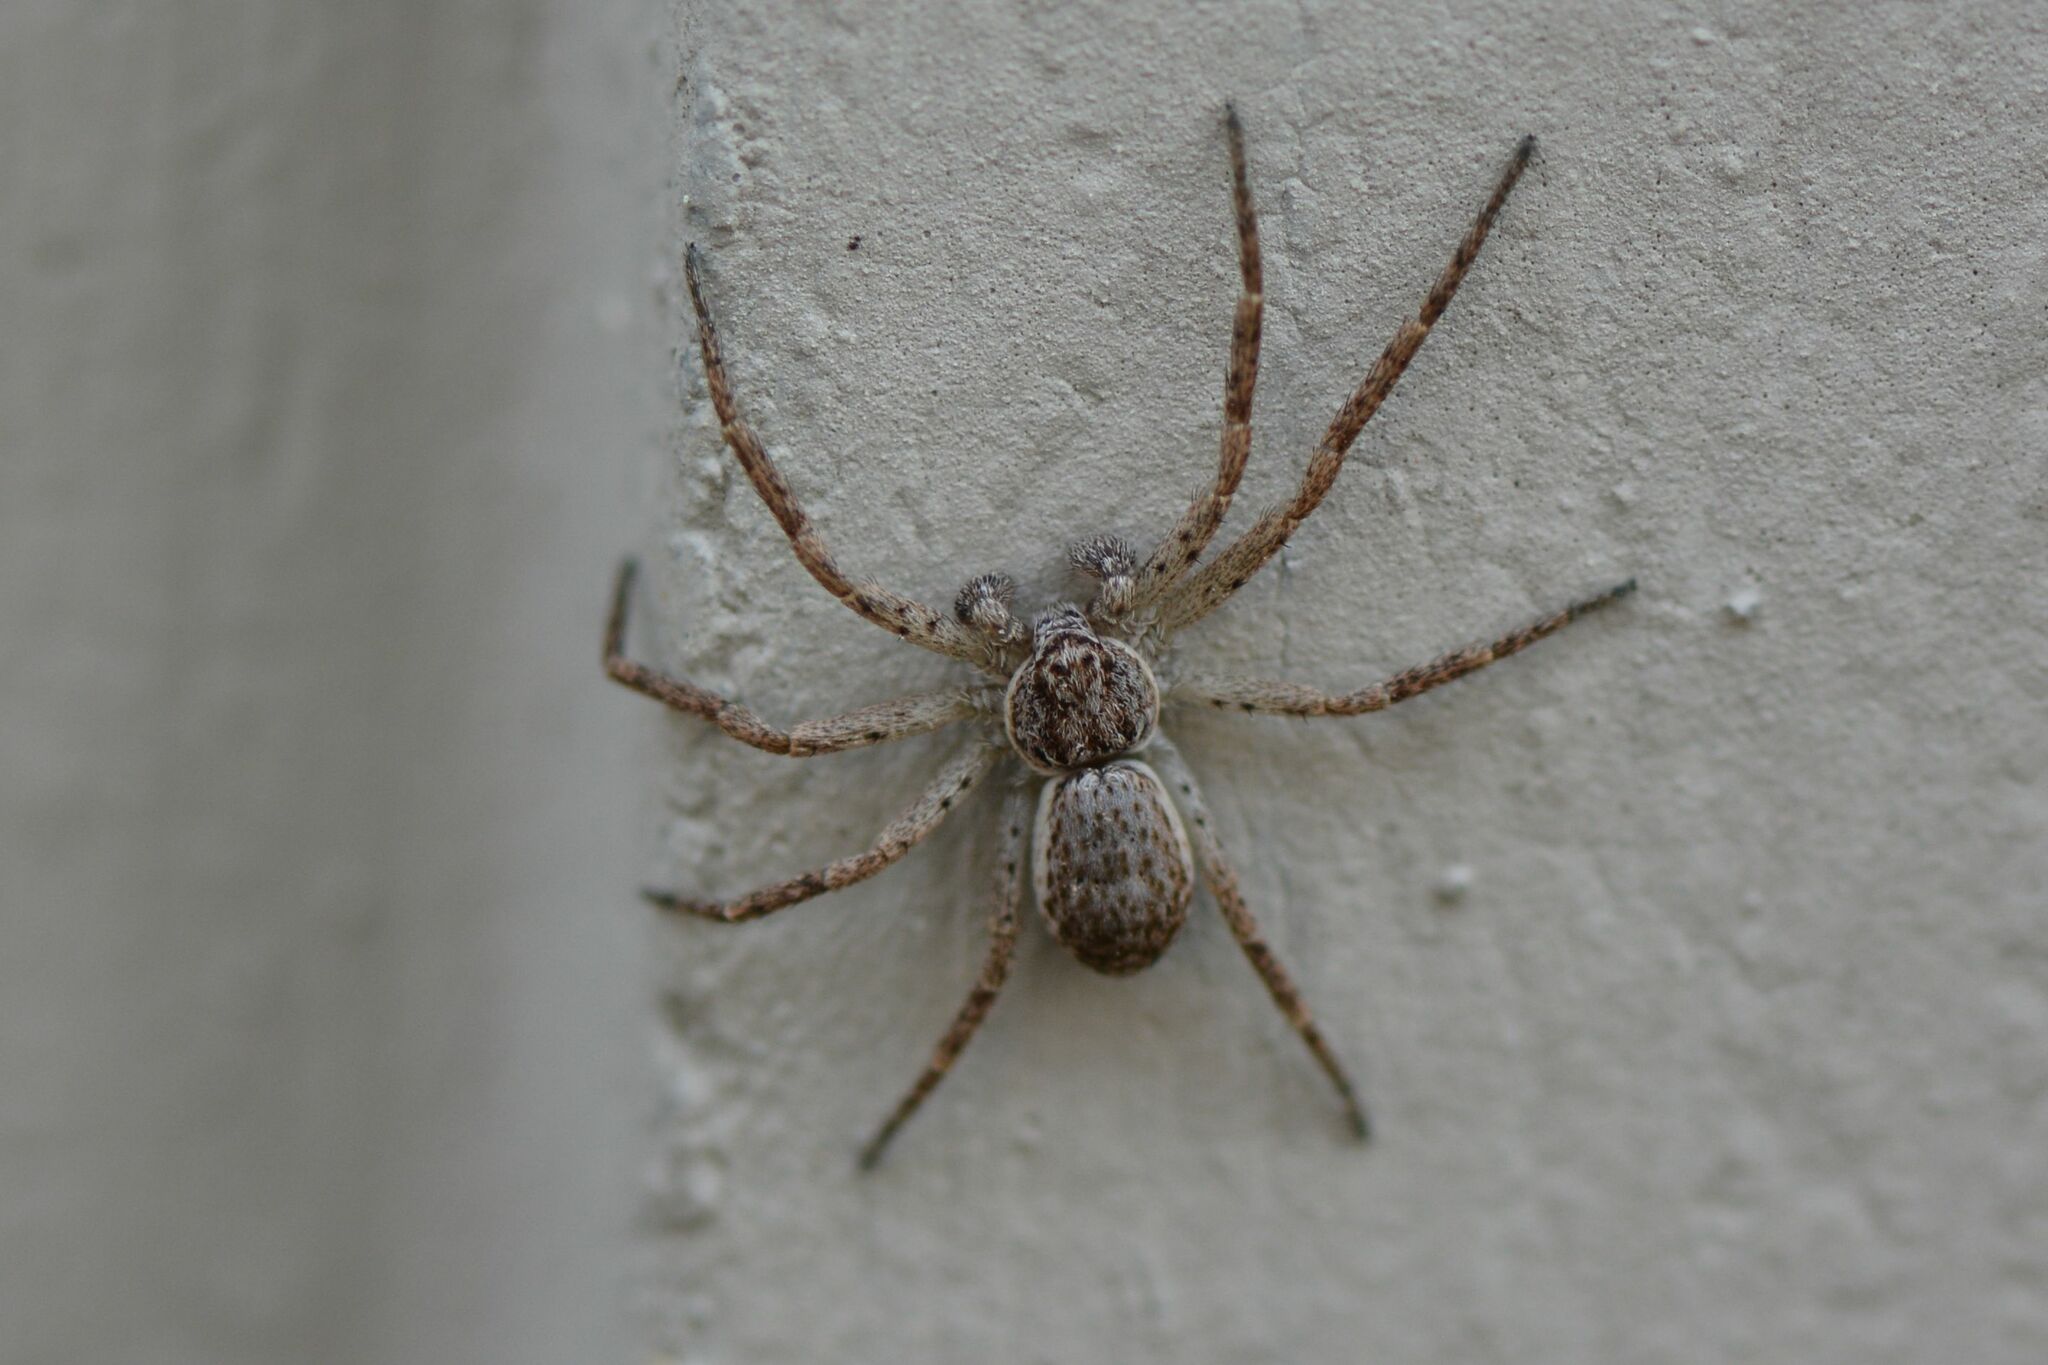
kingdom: Animalia
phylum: Arthropoda
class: Arachnida
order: Araneae
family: Philodromidae
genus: Philodromus
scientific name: Philodromus dispar
